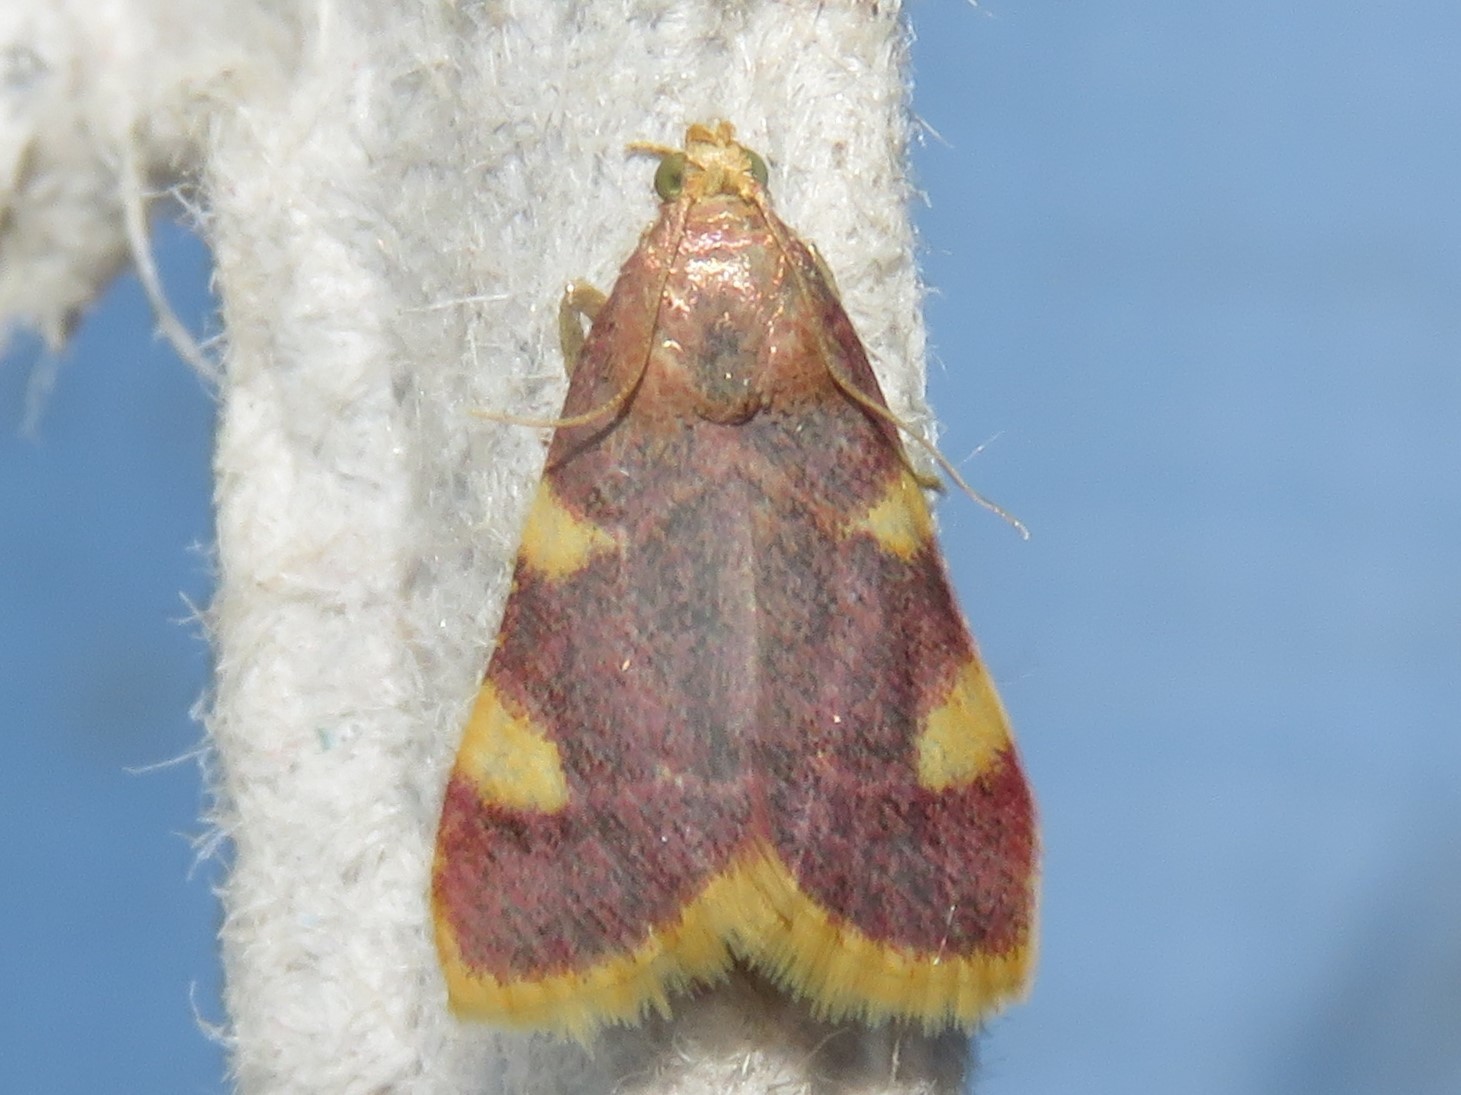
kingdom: Animalia
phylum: Arthropoda
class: Insecta
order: Lepidoptera
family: Pyralidae
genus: Hypsopygia
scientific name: Hypsopygia costalis
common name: Gold triangle
